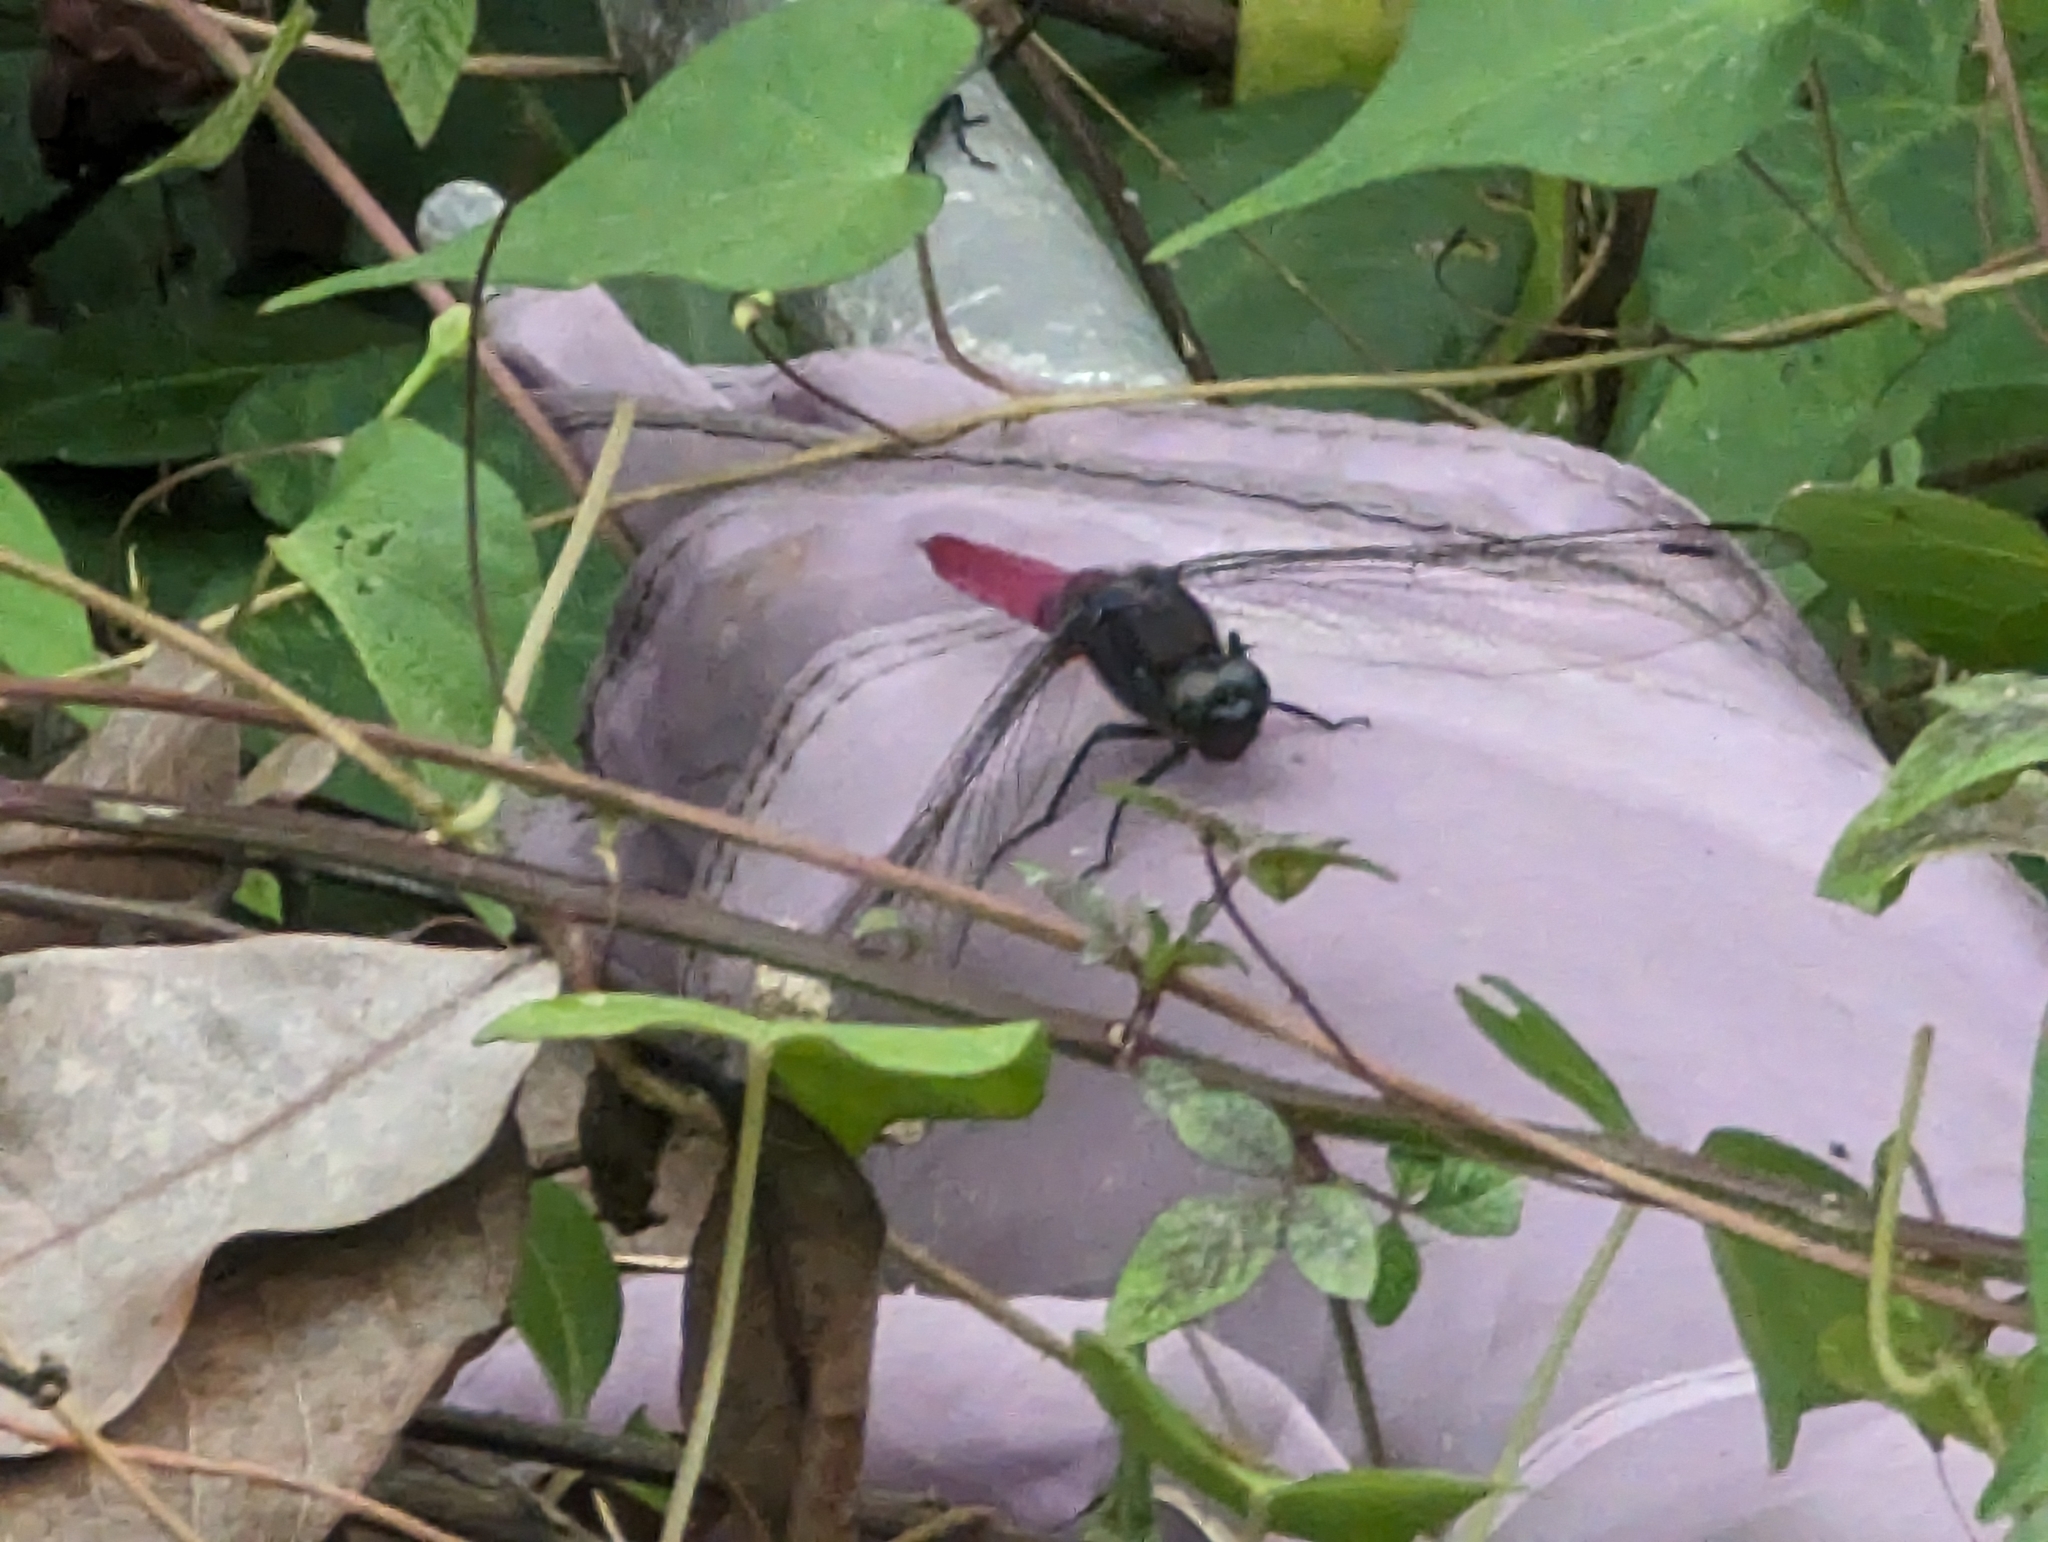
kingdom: Animalia
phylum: Arthropoda
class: Insecta
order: Odonata
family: Libellulidae
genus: Orthetrum
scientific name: Orthetrum pruinosum
